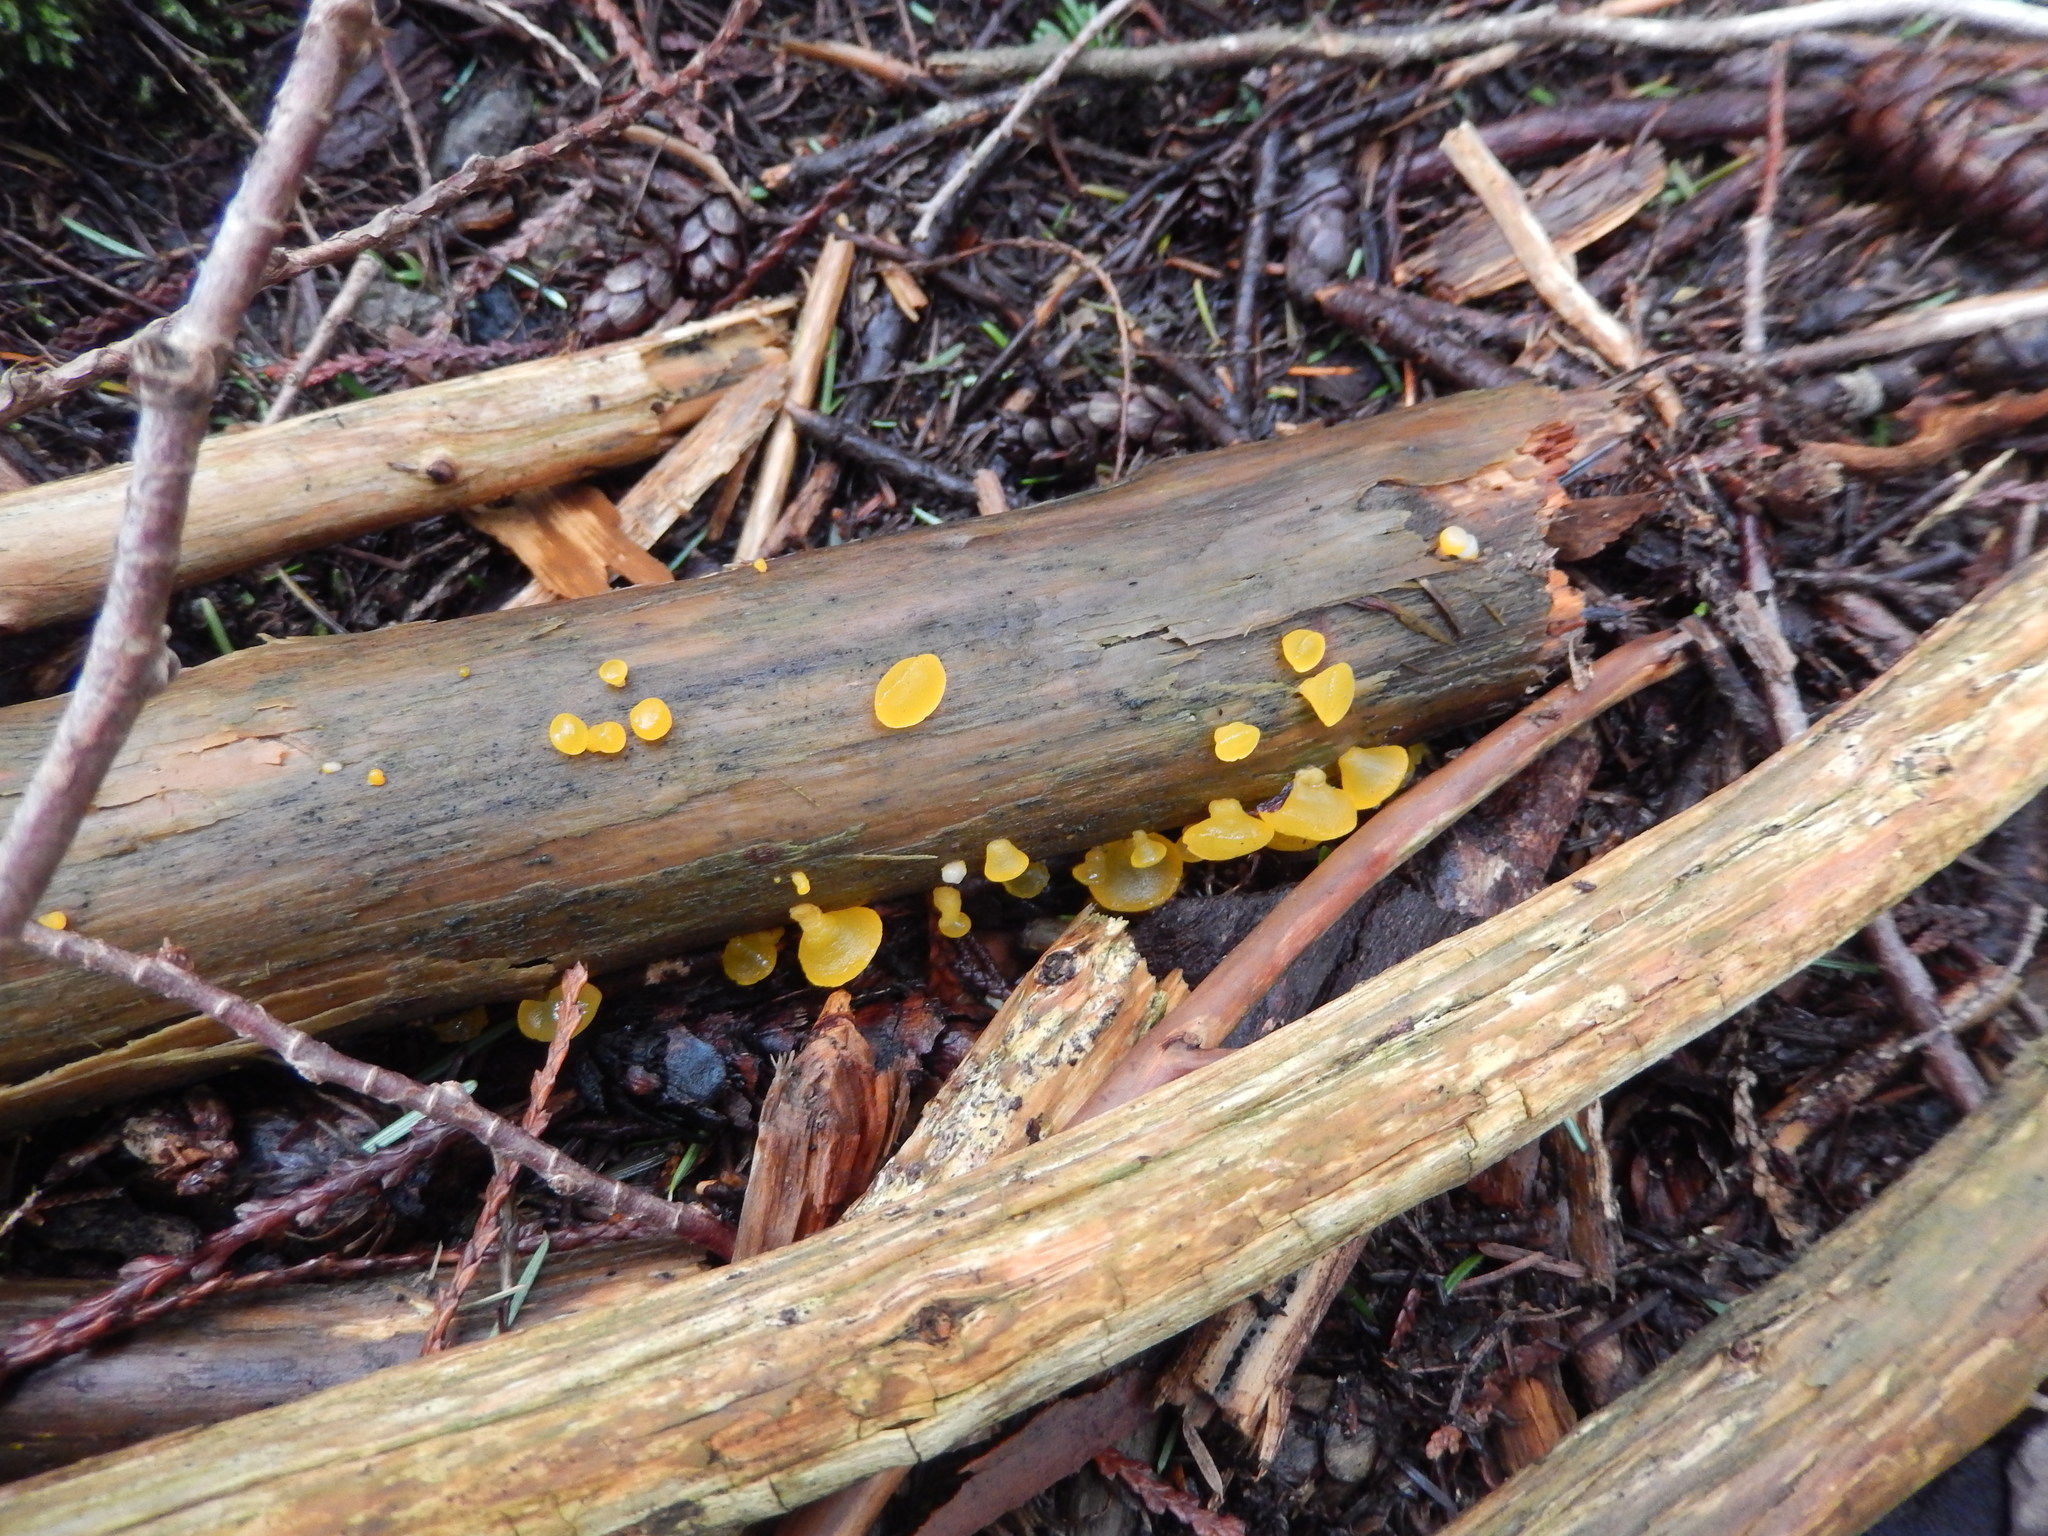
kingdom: Fungi
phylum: Basidiomycota
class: Dacrymycetes
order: Dacrymycetales
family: Dacrymycetaceae
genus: Guepiniopsis
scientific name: Guepiniopsis alpina
